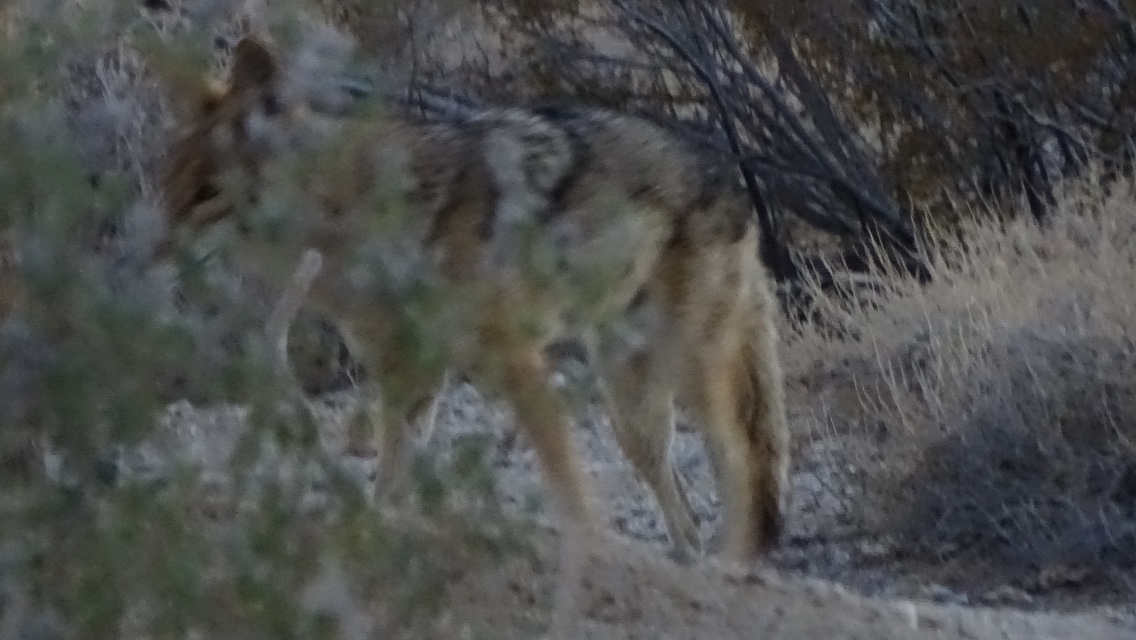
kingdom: Animalia
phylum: Chordata
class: Mammalia
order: Carnivora
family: Canidae
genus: Canis
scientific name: Canis latrans
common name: Coyote
